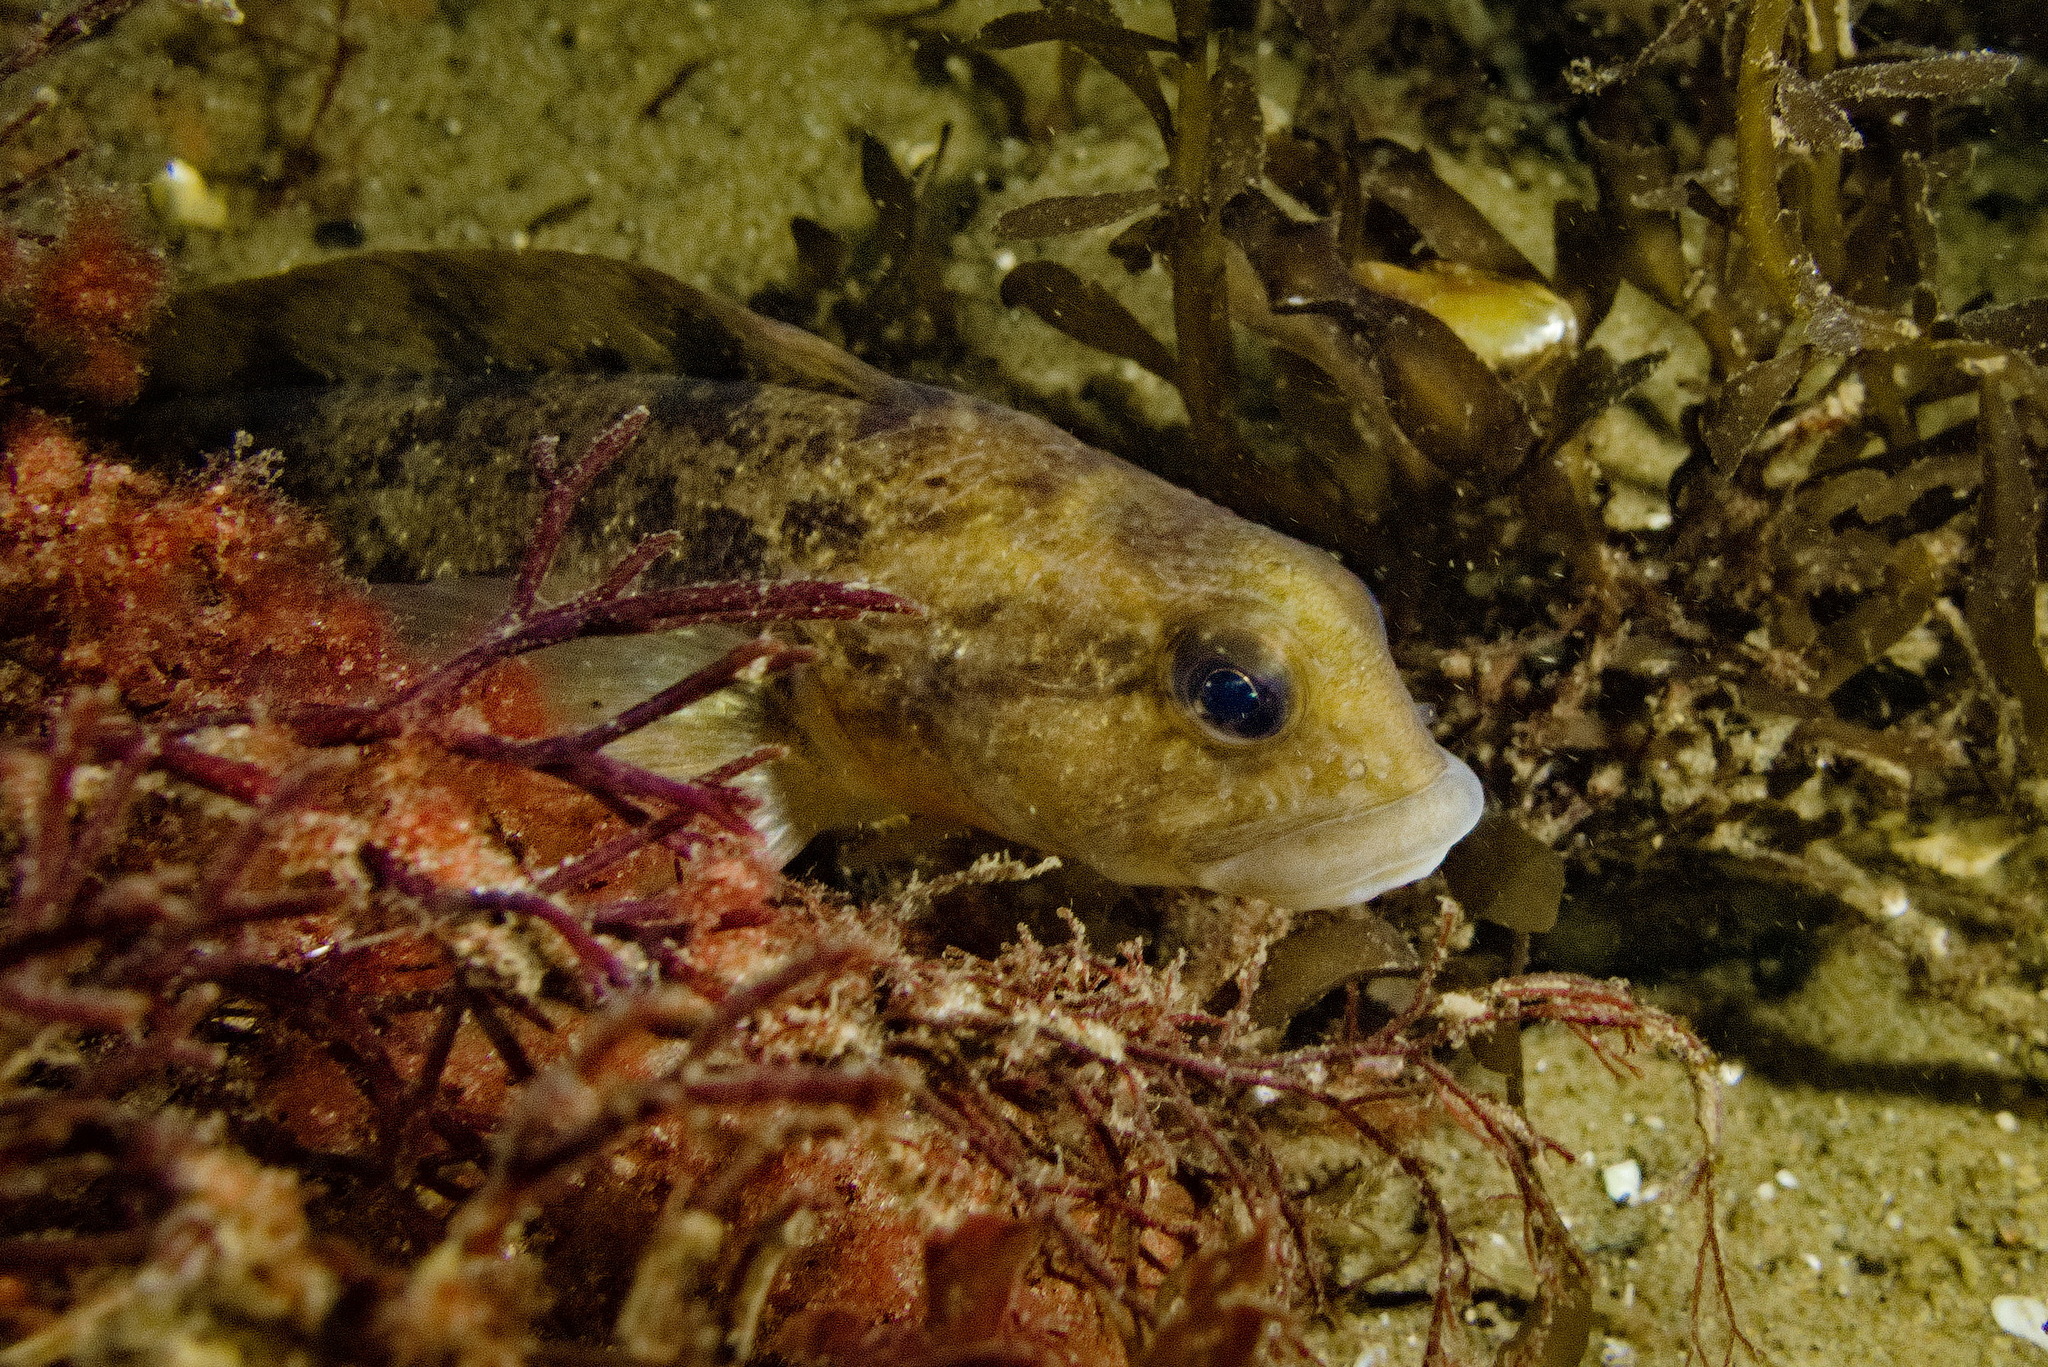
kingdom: Animalia
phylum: Chordata
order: Perciformes
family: Zoarcidae
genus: Zoarces
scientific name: Zoarces viviparus
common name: Viviparous blenny
